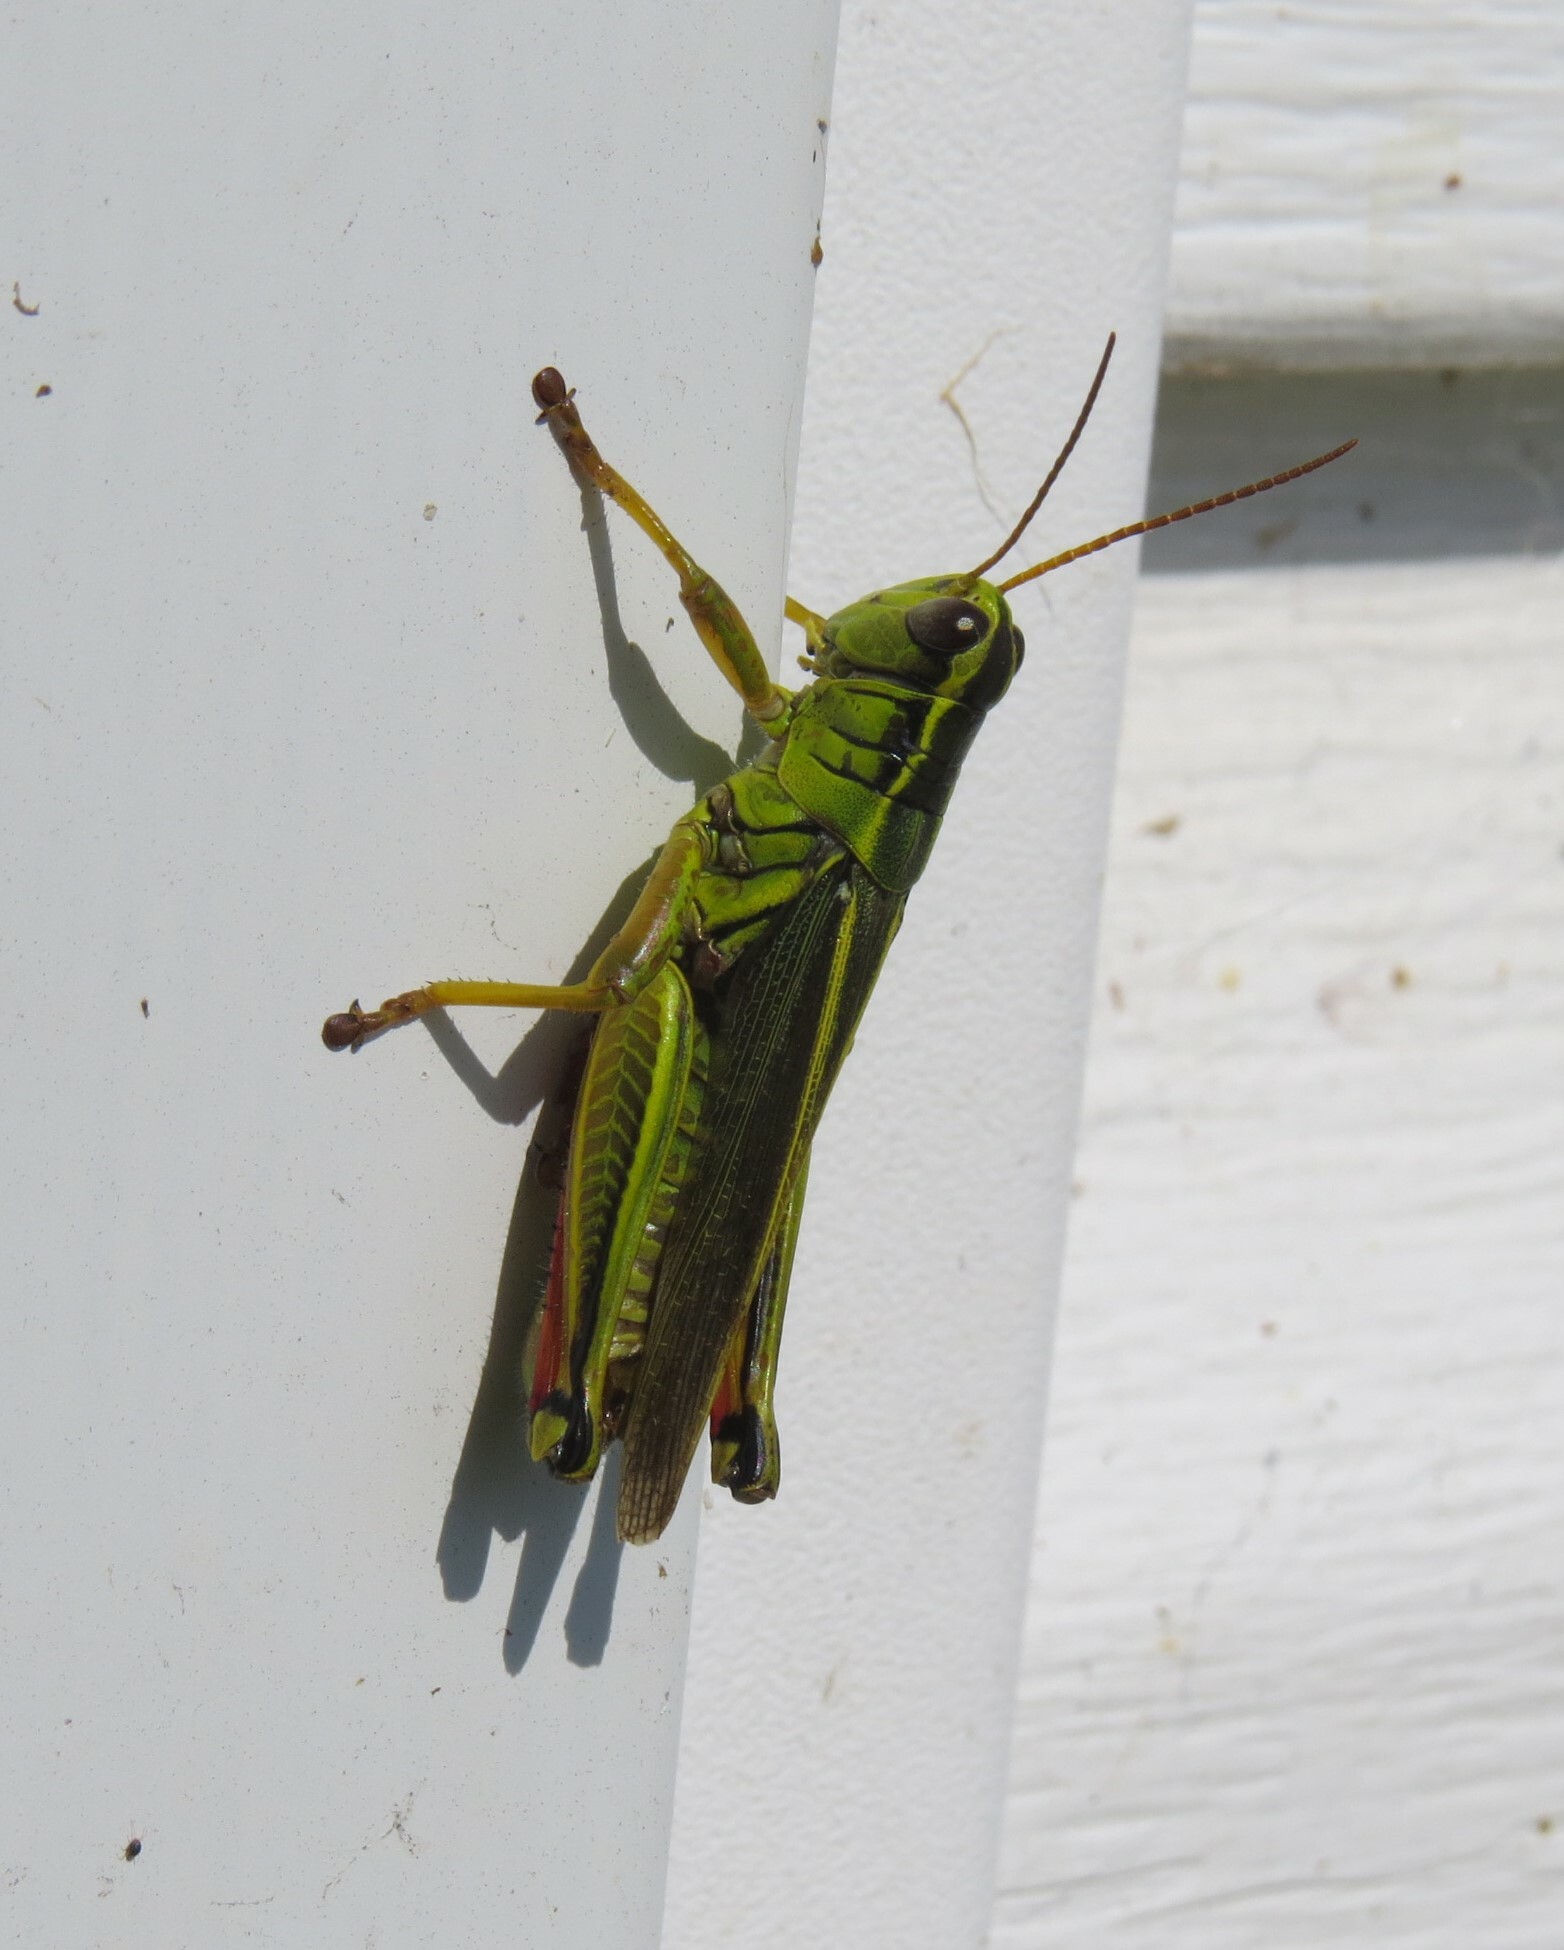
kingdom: Animalia
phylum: Arthropoda
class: Insecta
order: Orthoptera
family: Acrididae
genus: Melanoplus
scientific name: Melanoplus bivittatus
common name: Two-striped grasshopper
